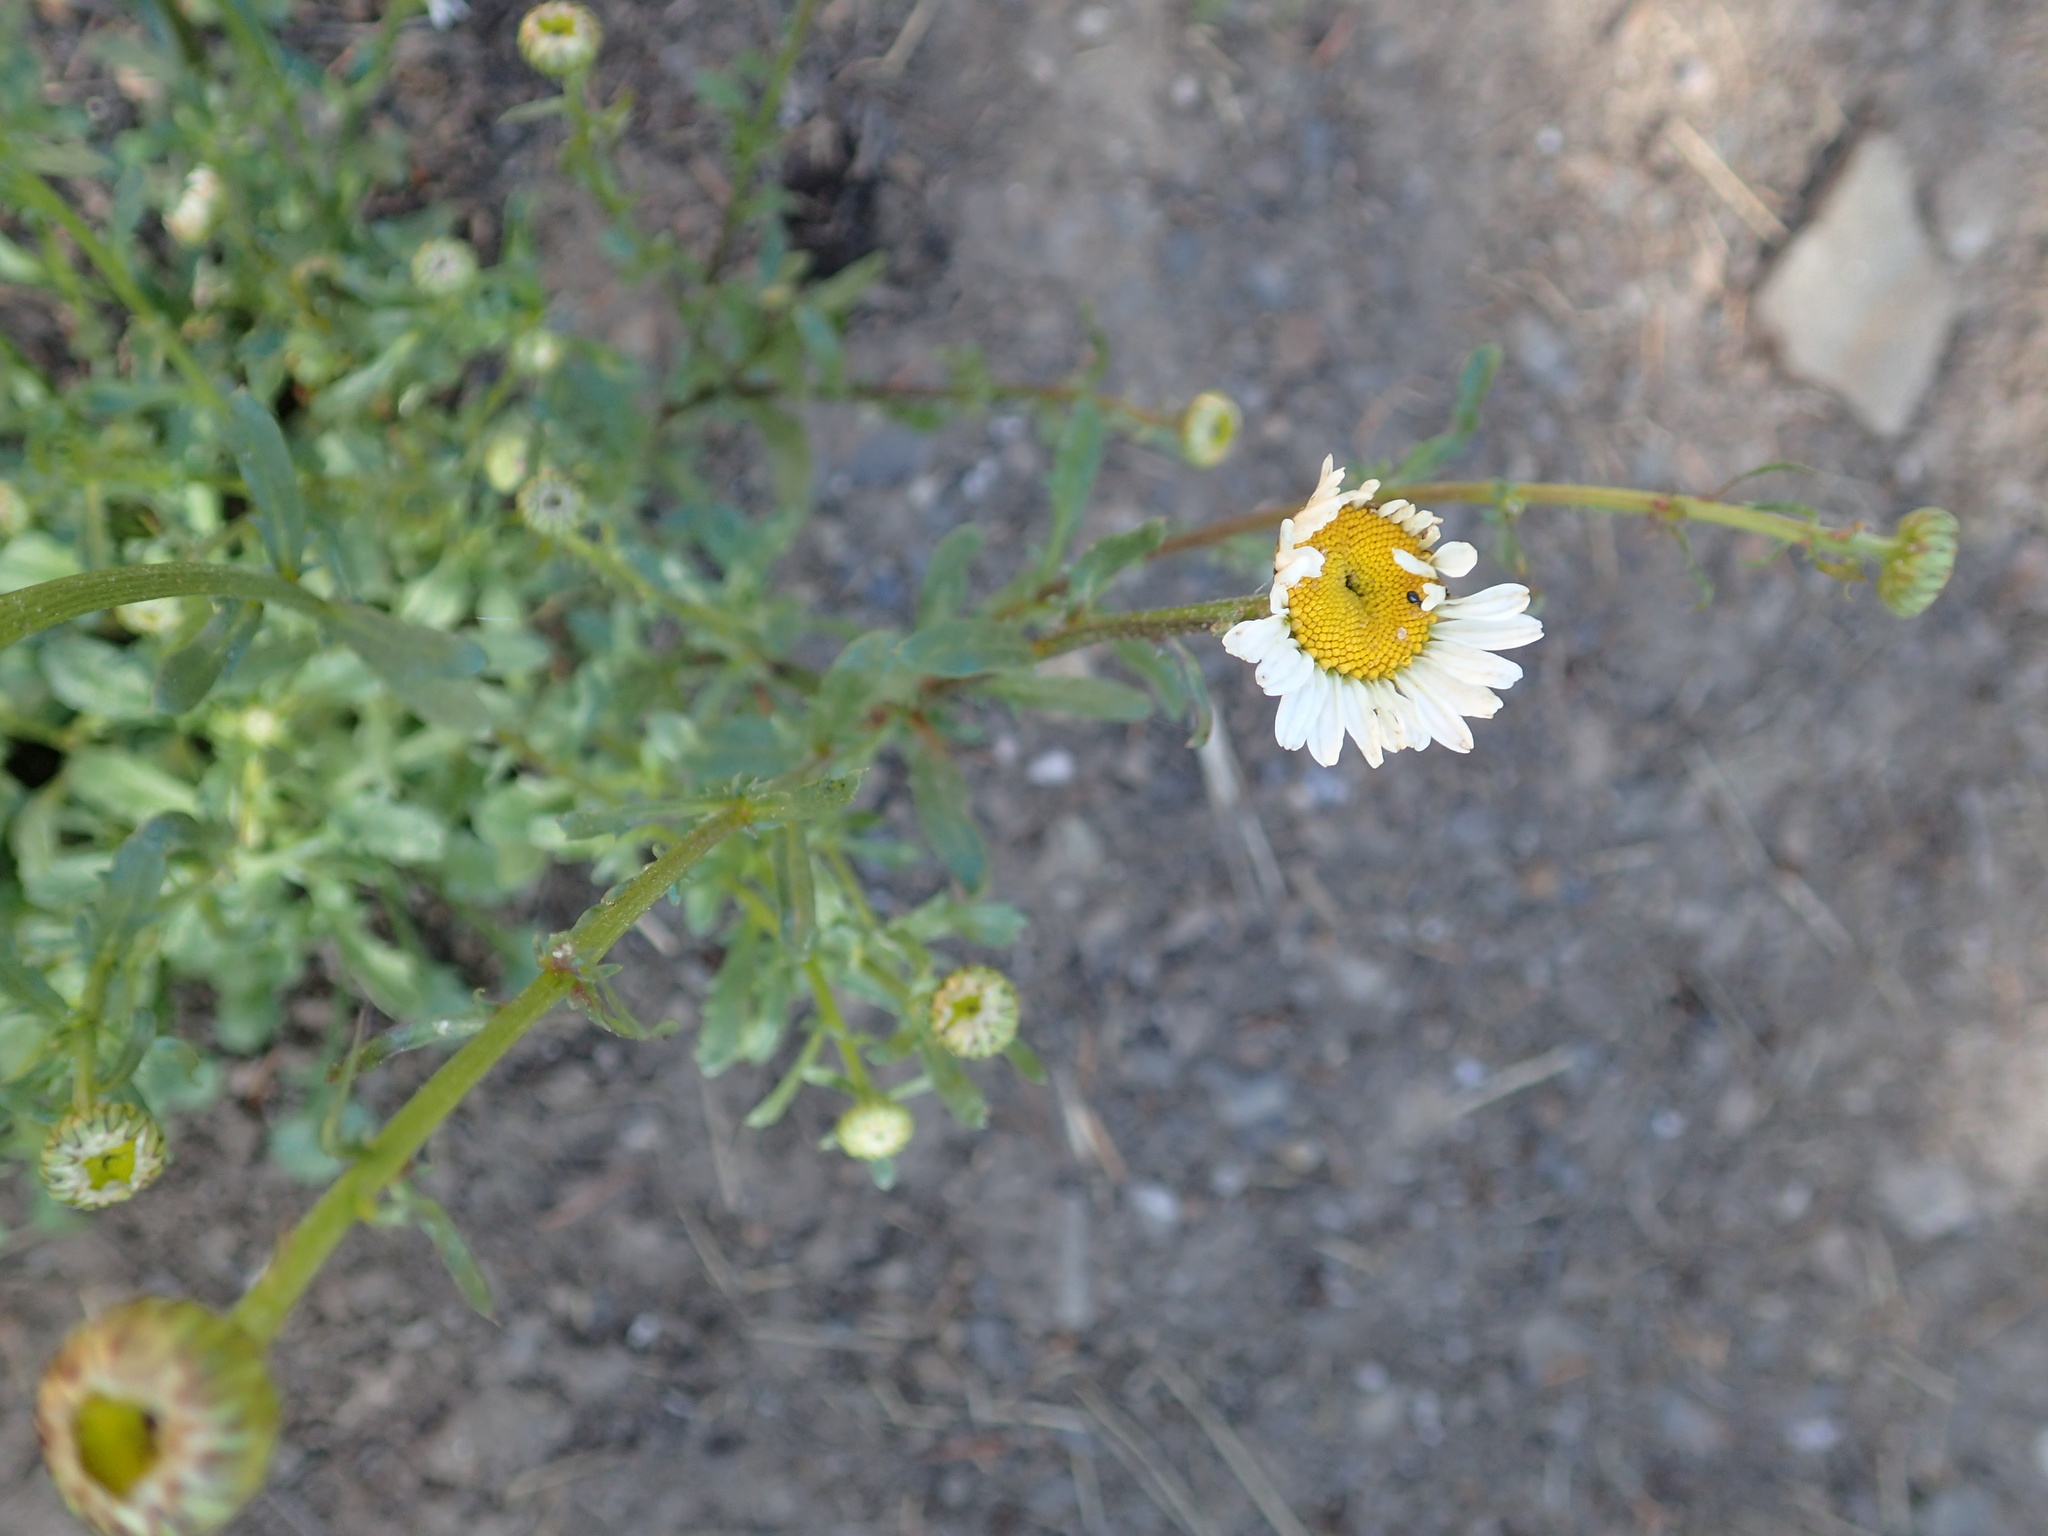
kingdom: Plantae
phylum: Tracheophyta
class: Magnoliopsida
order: Asterales
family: Asteraceae
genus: Leucanthemum
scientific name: Leucanthemum vulgare
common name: Oxeye daisy
